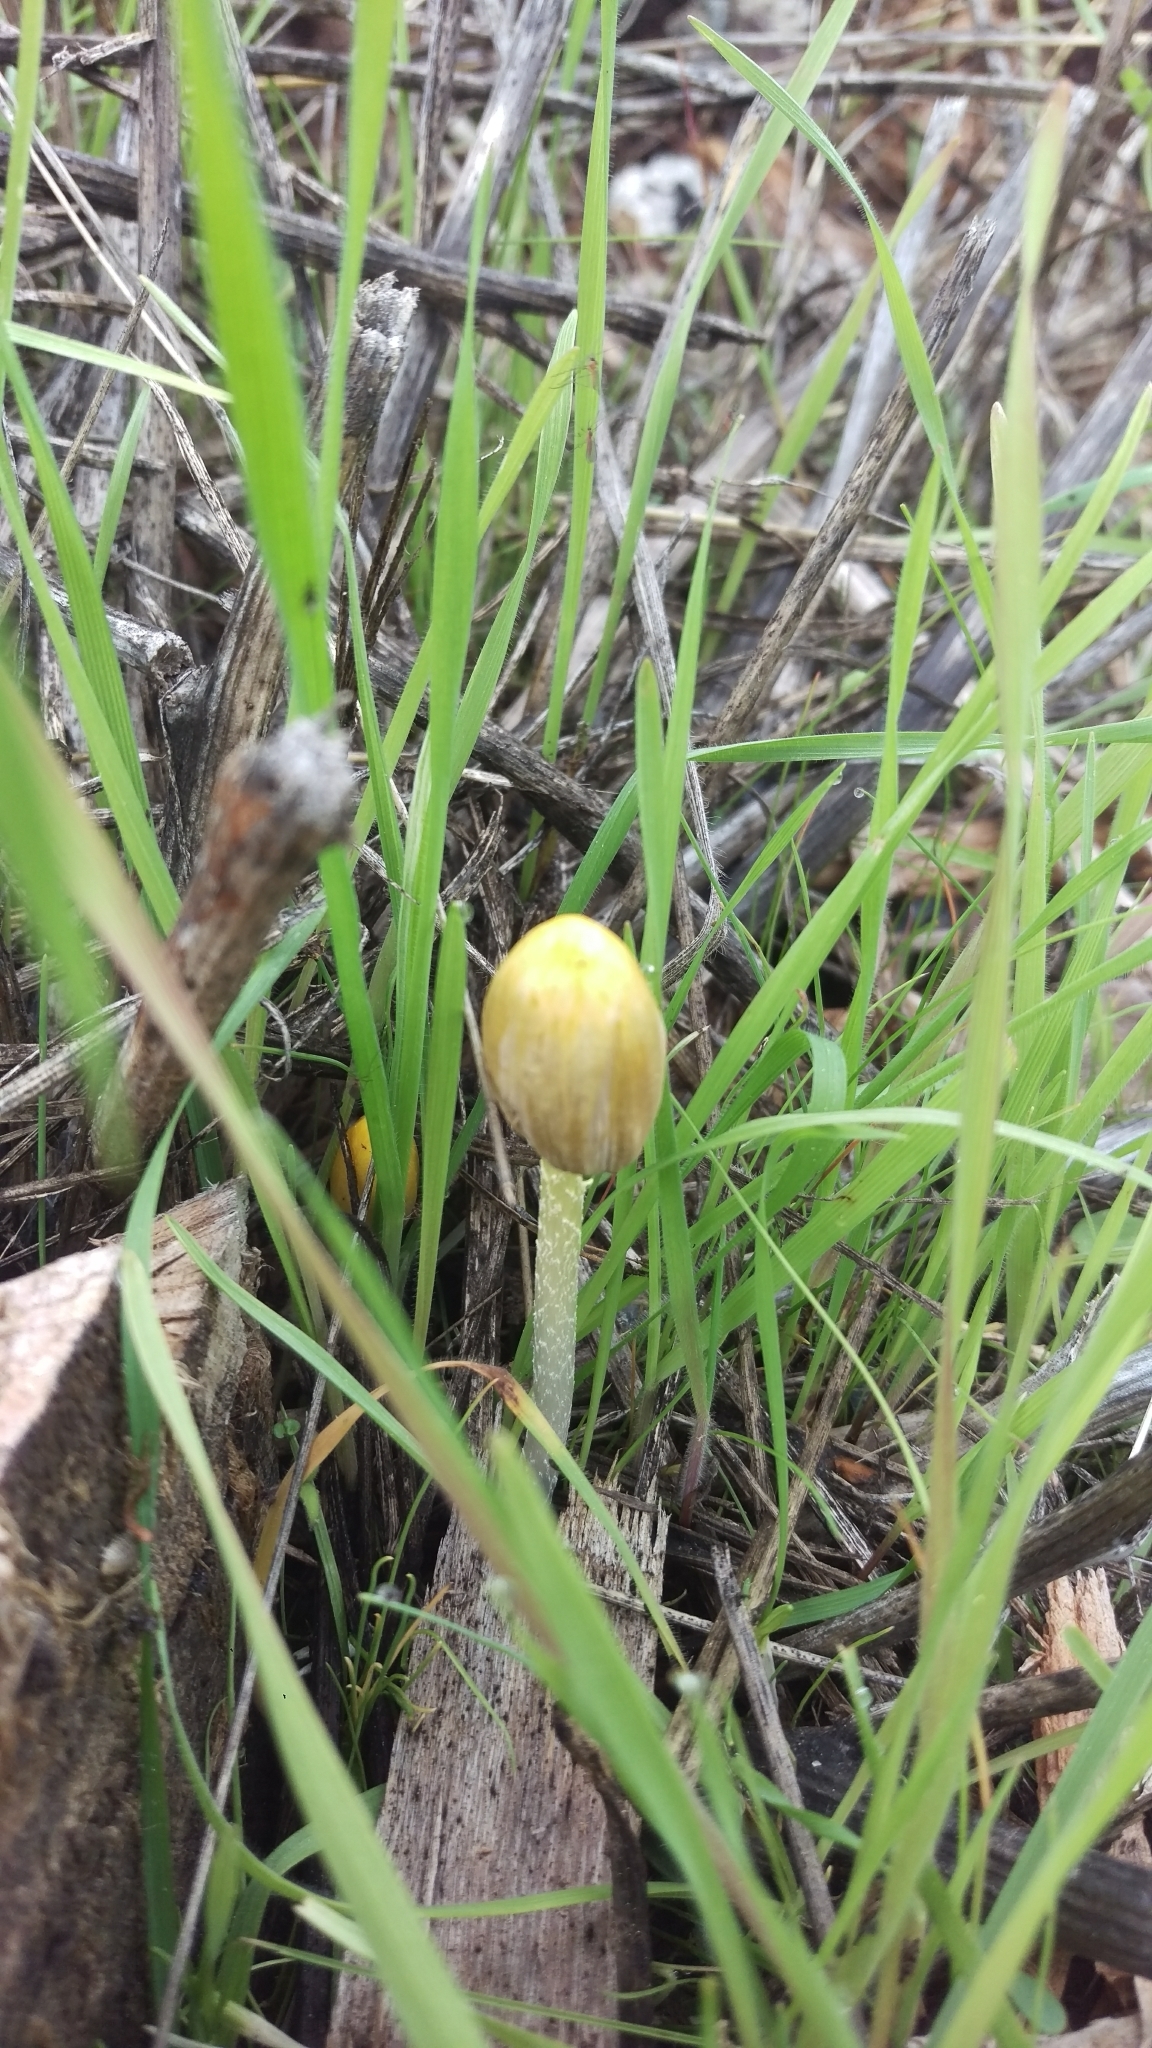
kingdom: Fungi
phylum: Basidiomycota
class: Agaricomycetes
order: Agaricales
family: Bolbitiaceae
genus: Bolbitius
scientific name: Bolbitius titubans
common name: Yellow fieldcap
